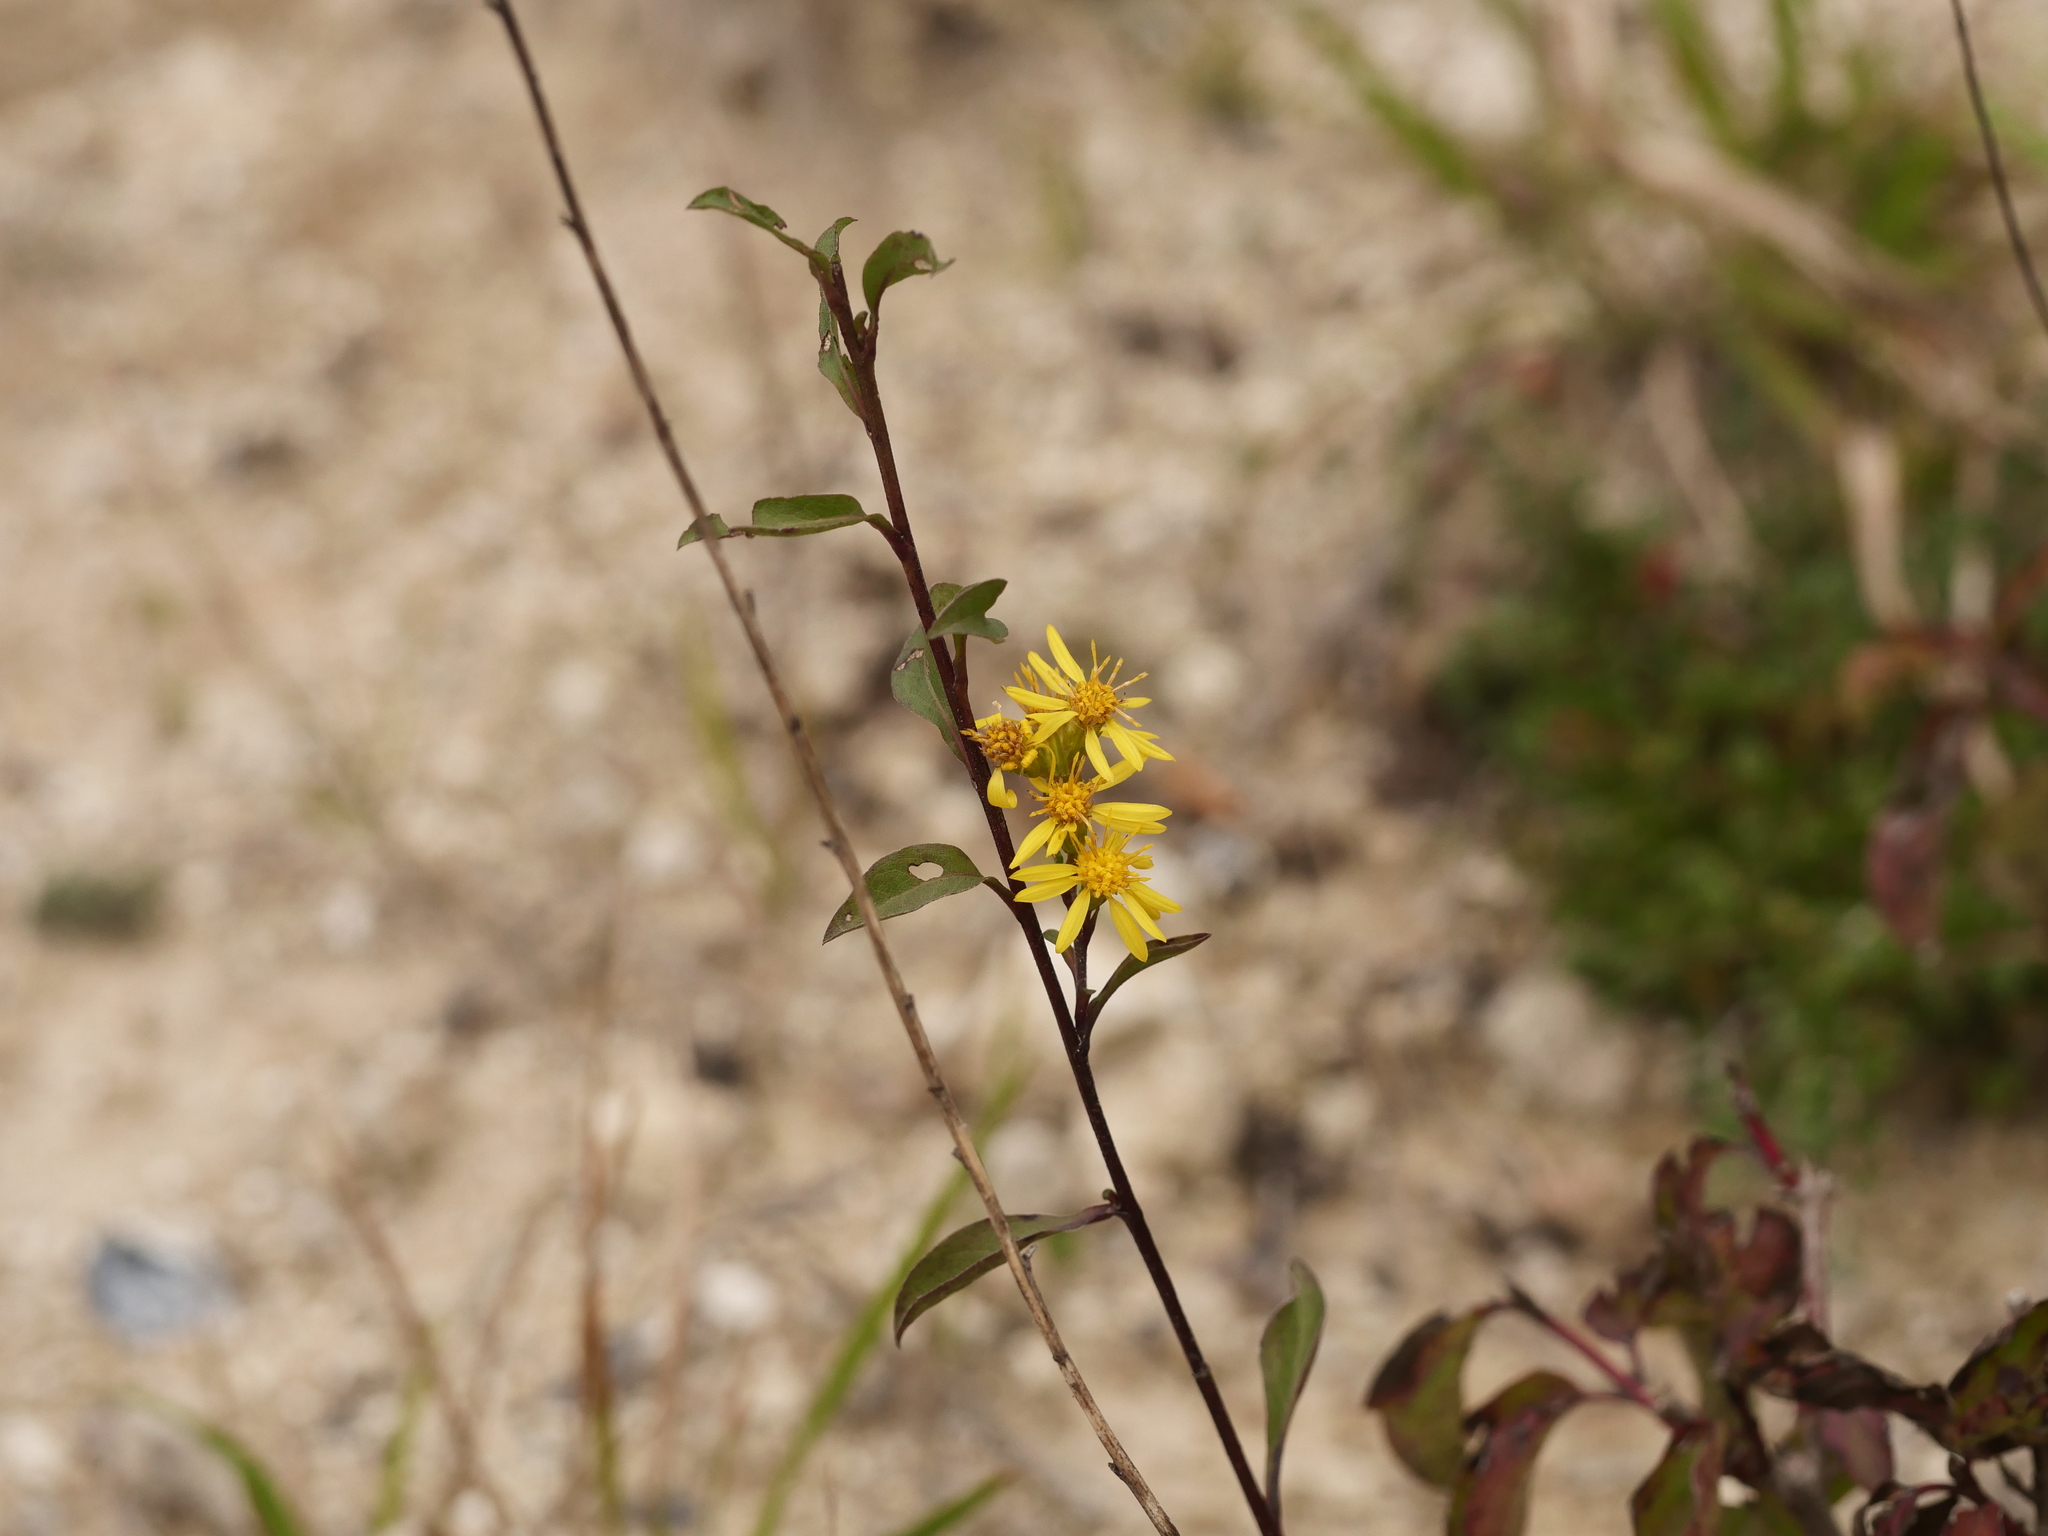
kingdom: Plantae
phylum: Tracheophyta
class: Magnoliopsida
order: Asterales
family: Asteraceae
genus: Solidago
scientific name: Solidago virgaurea
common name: Goldenrod
